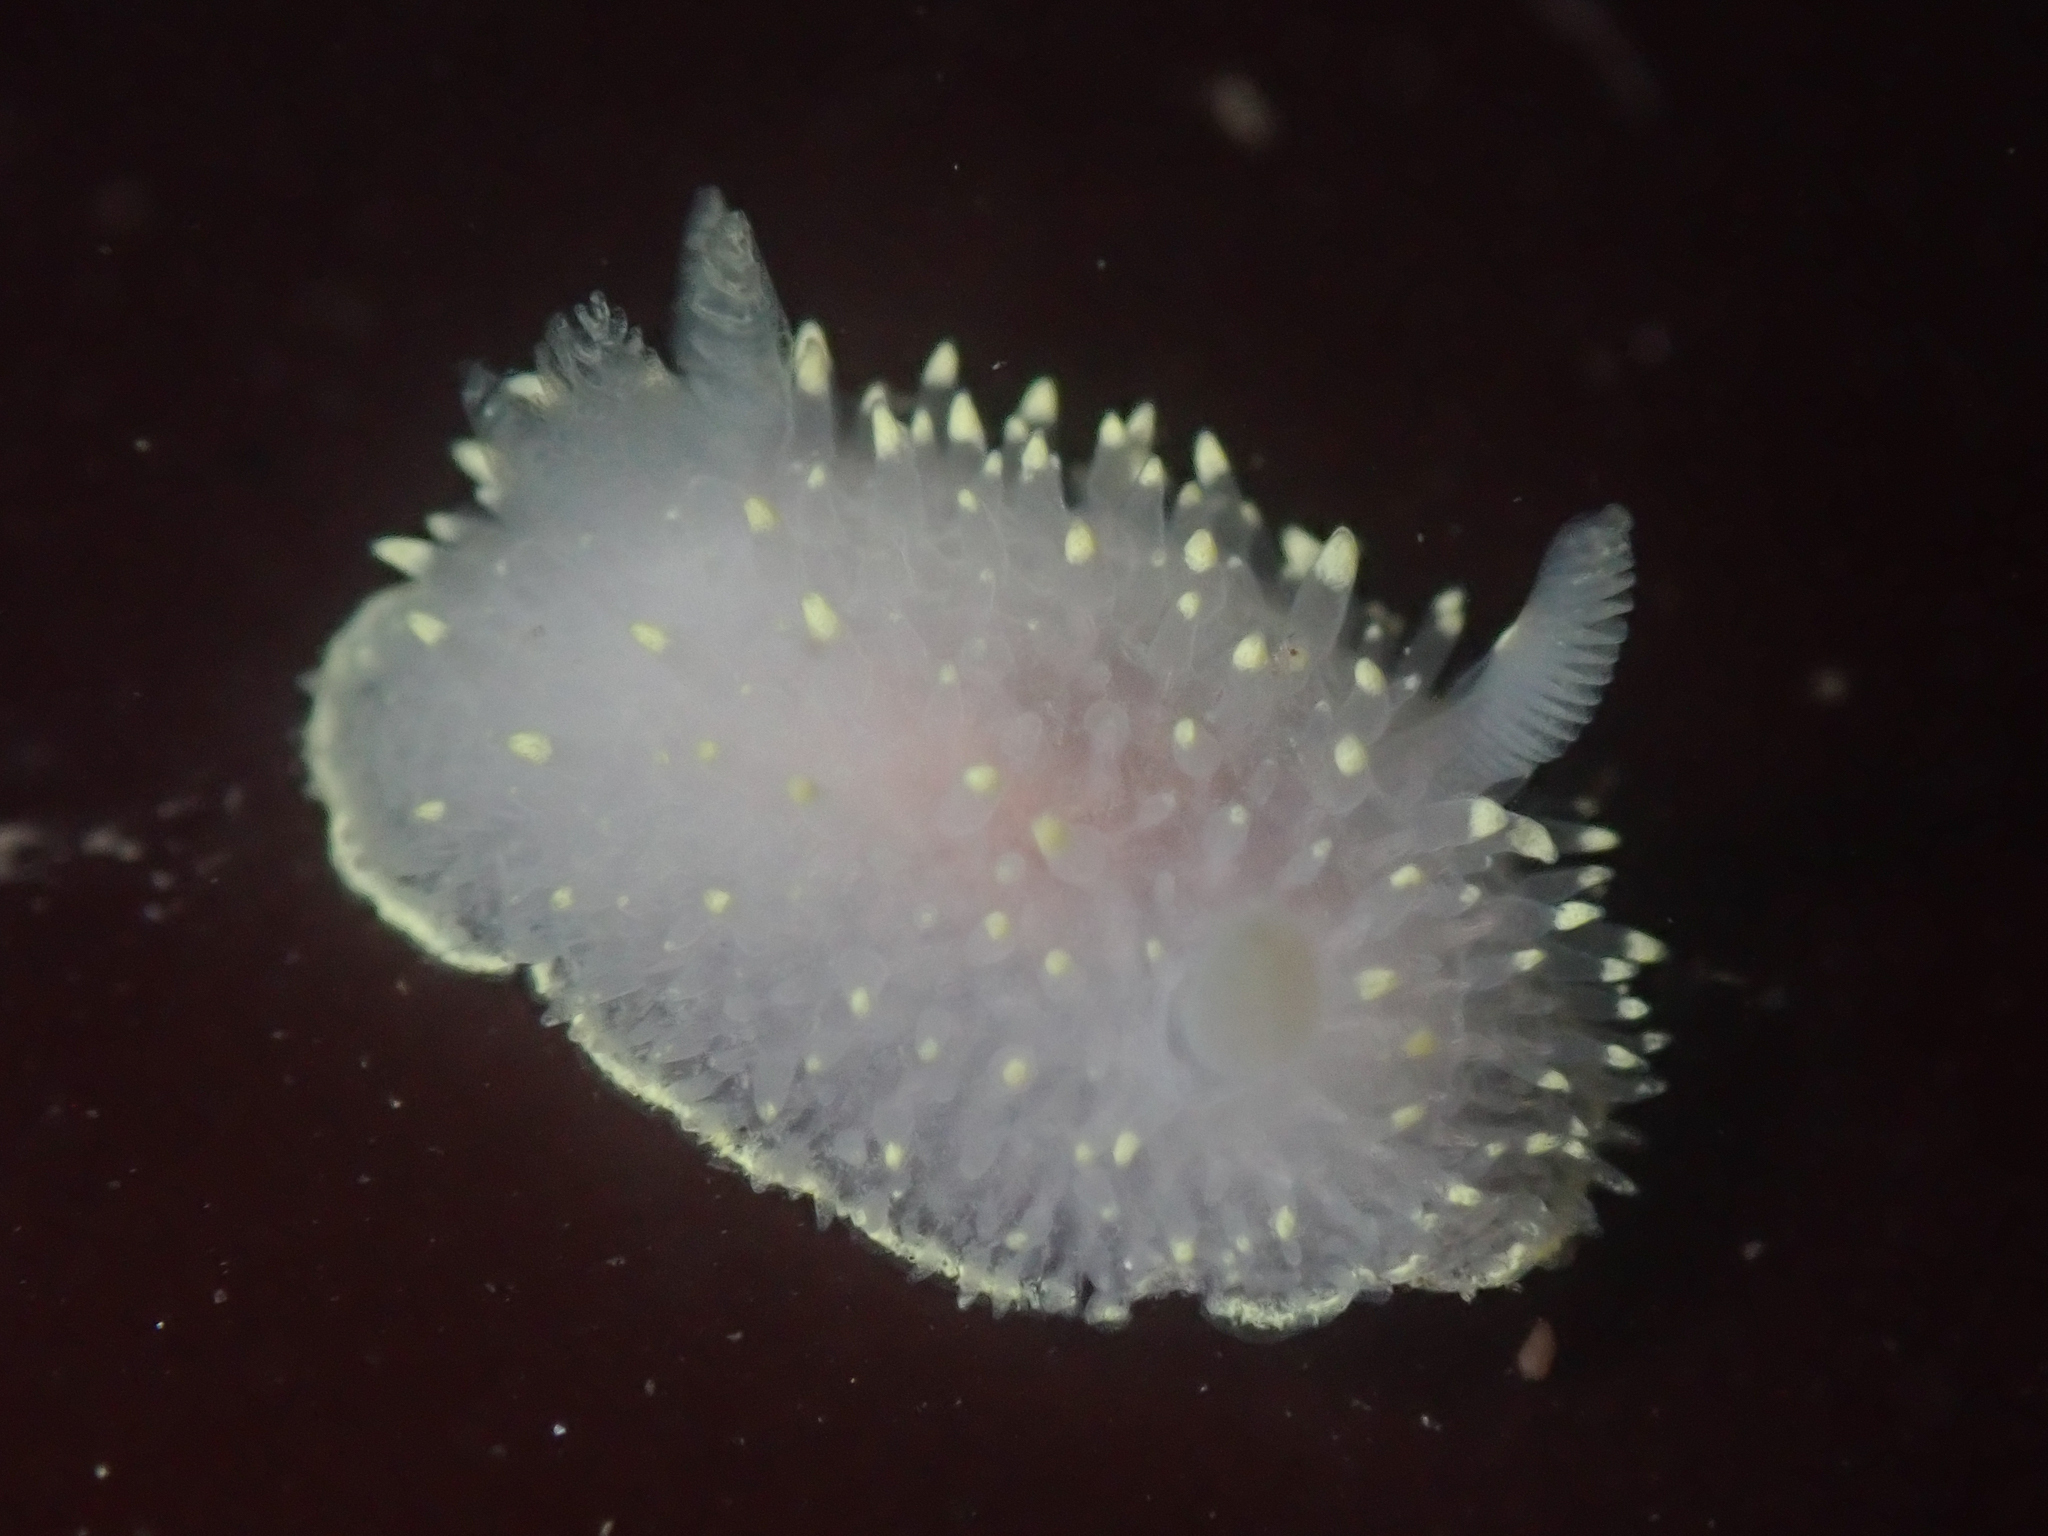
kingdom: Animalia
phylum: Mollusca
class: Gastropoda
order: Nudibranchia
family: Onchidorididae
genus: Acanthodoris
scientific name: Acanthodoris hudsoni
